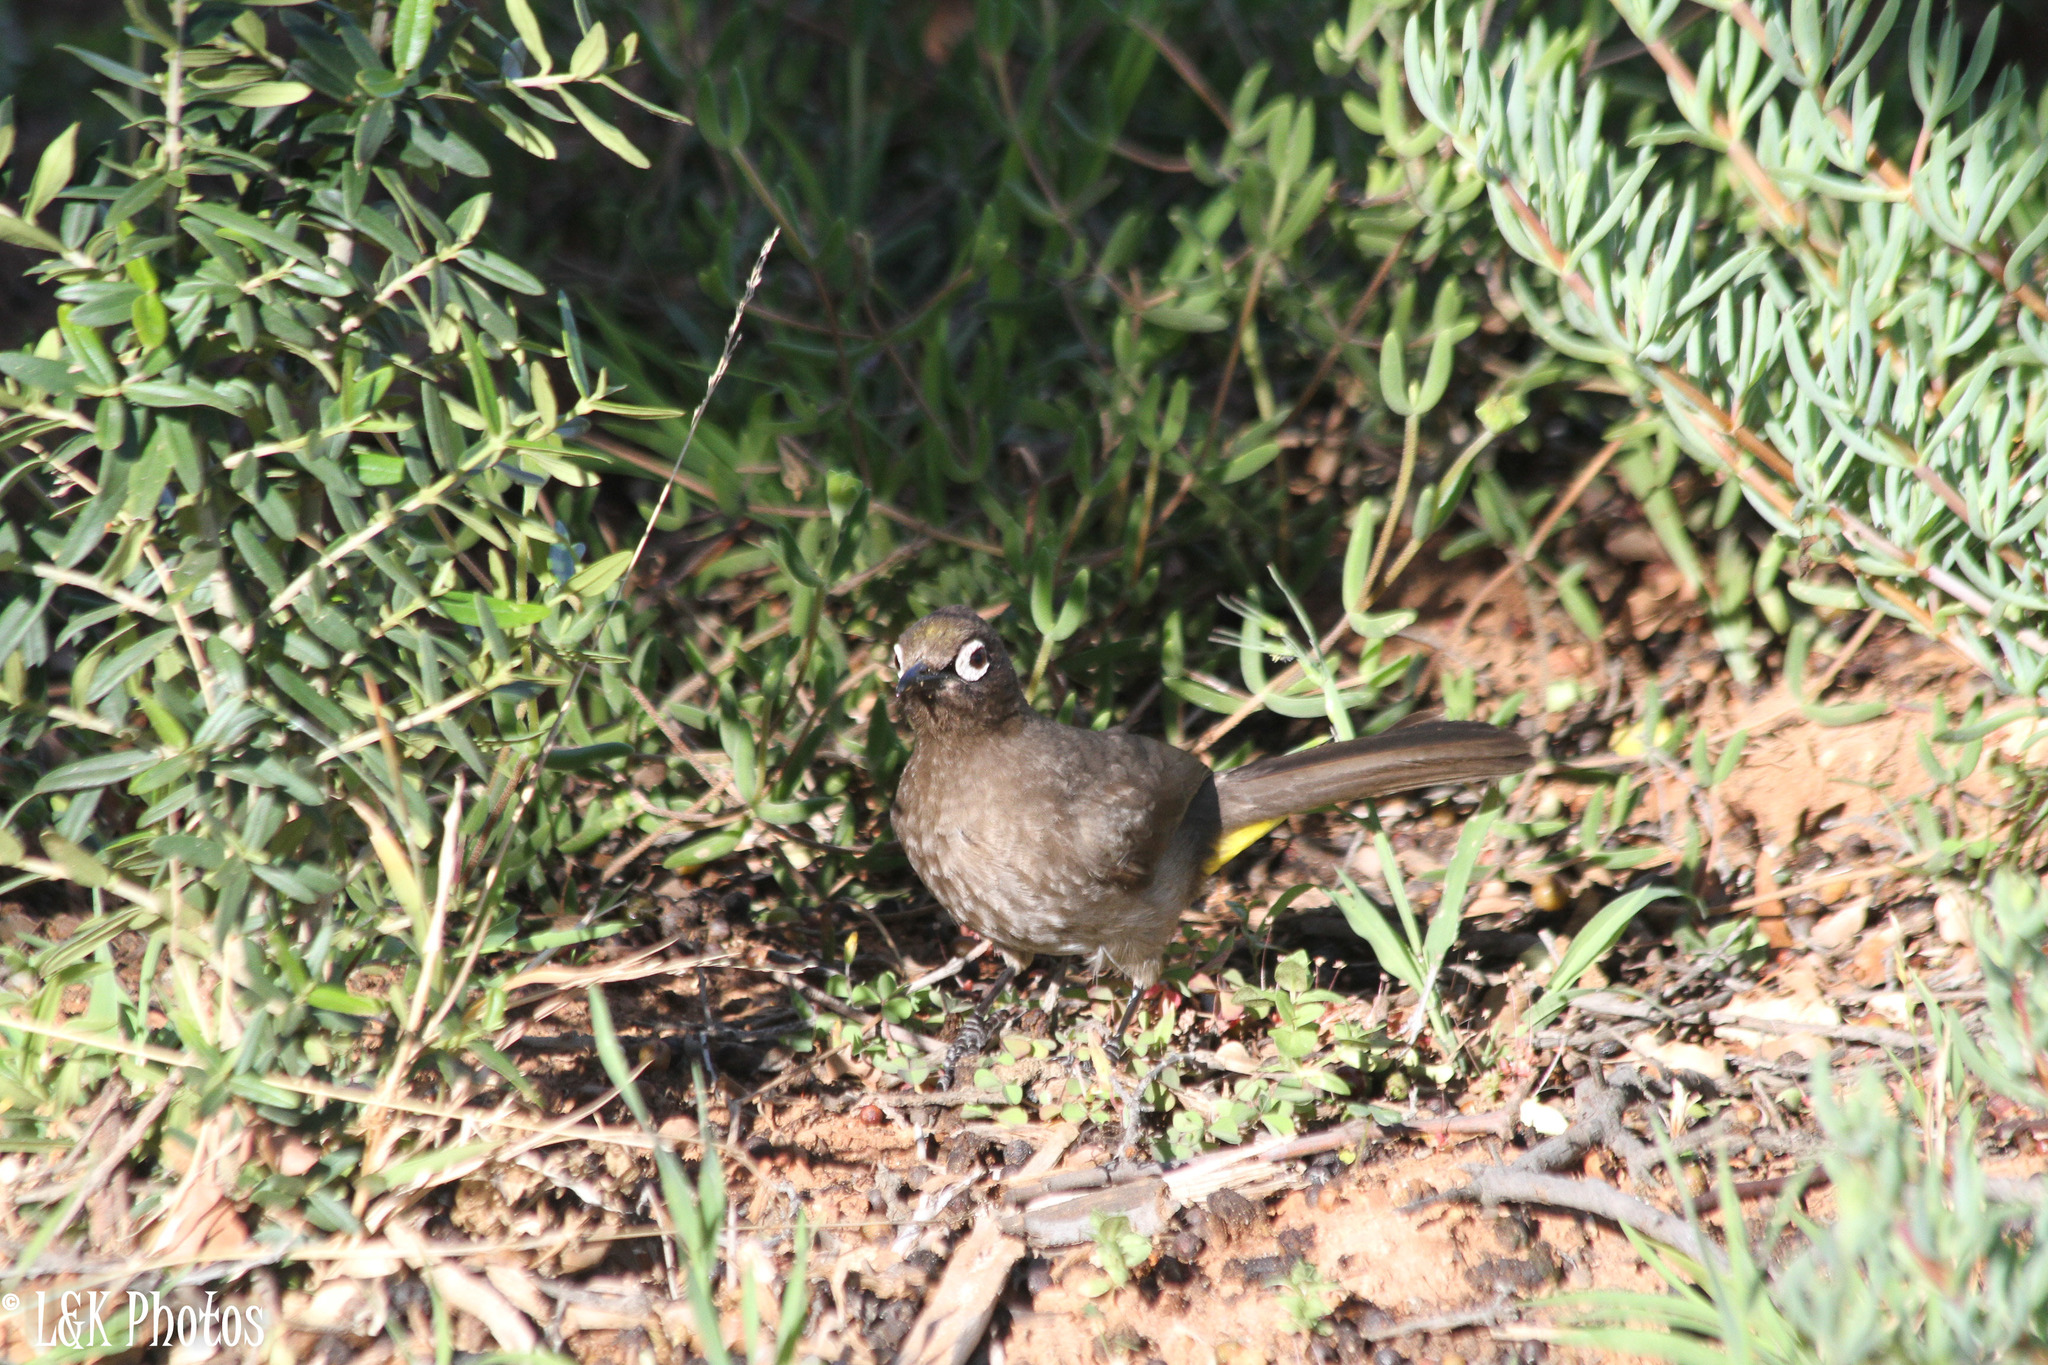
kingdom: Animalia
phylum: Chordata
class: Aves
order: Passeriformes
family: Pycnonotidae
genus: Pycnonotus
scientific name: Pycnonotus capensis
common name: Cape bulbul
